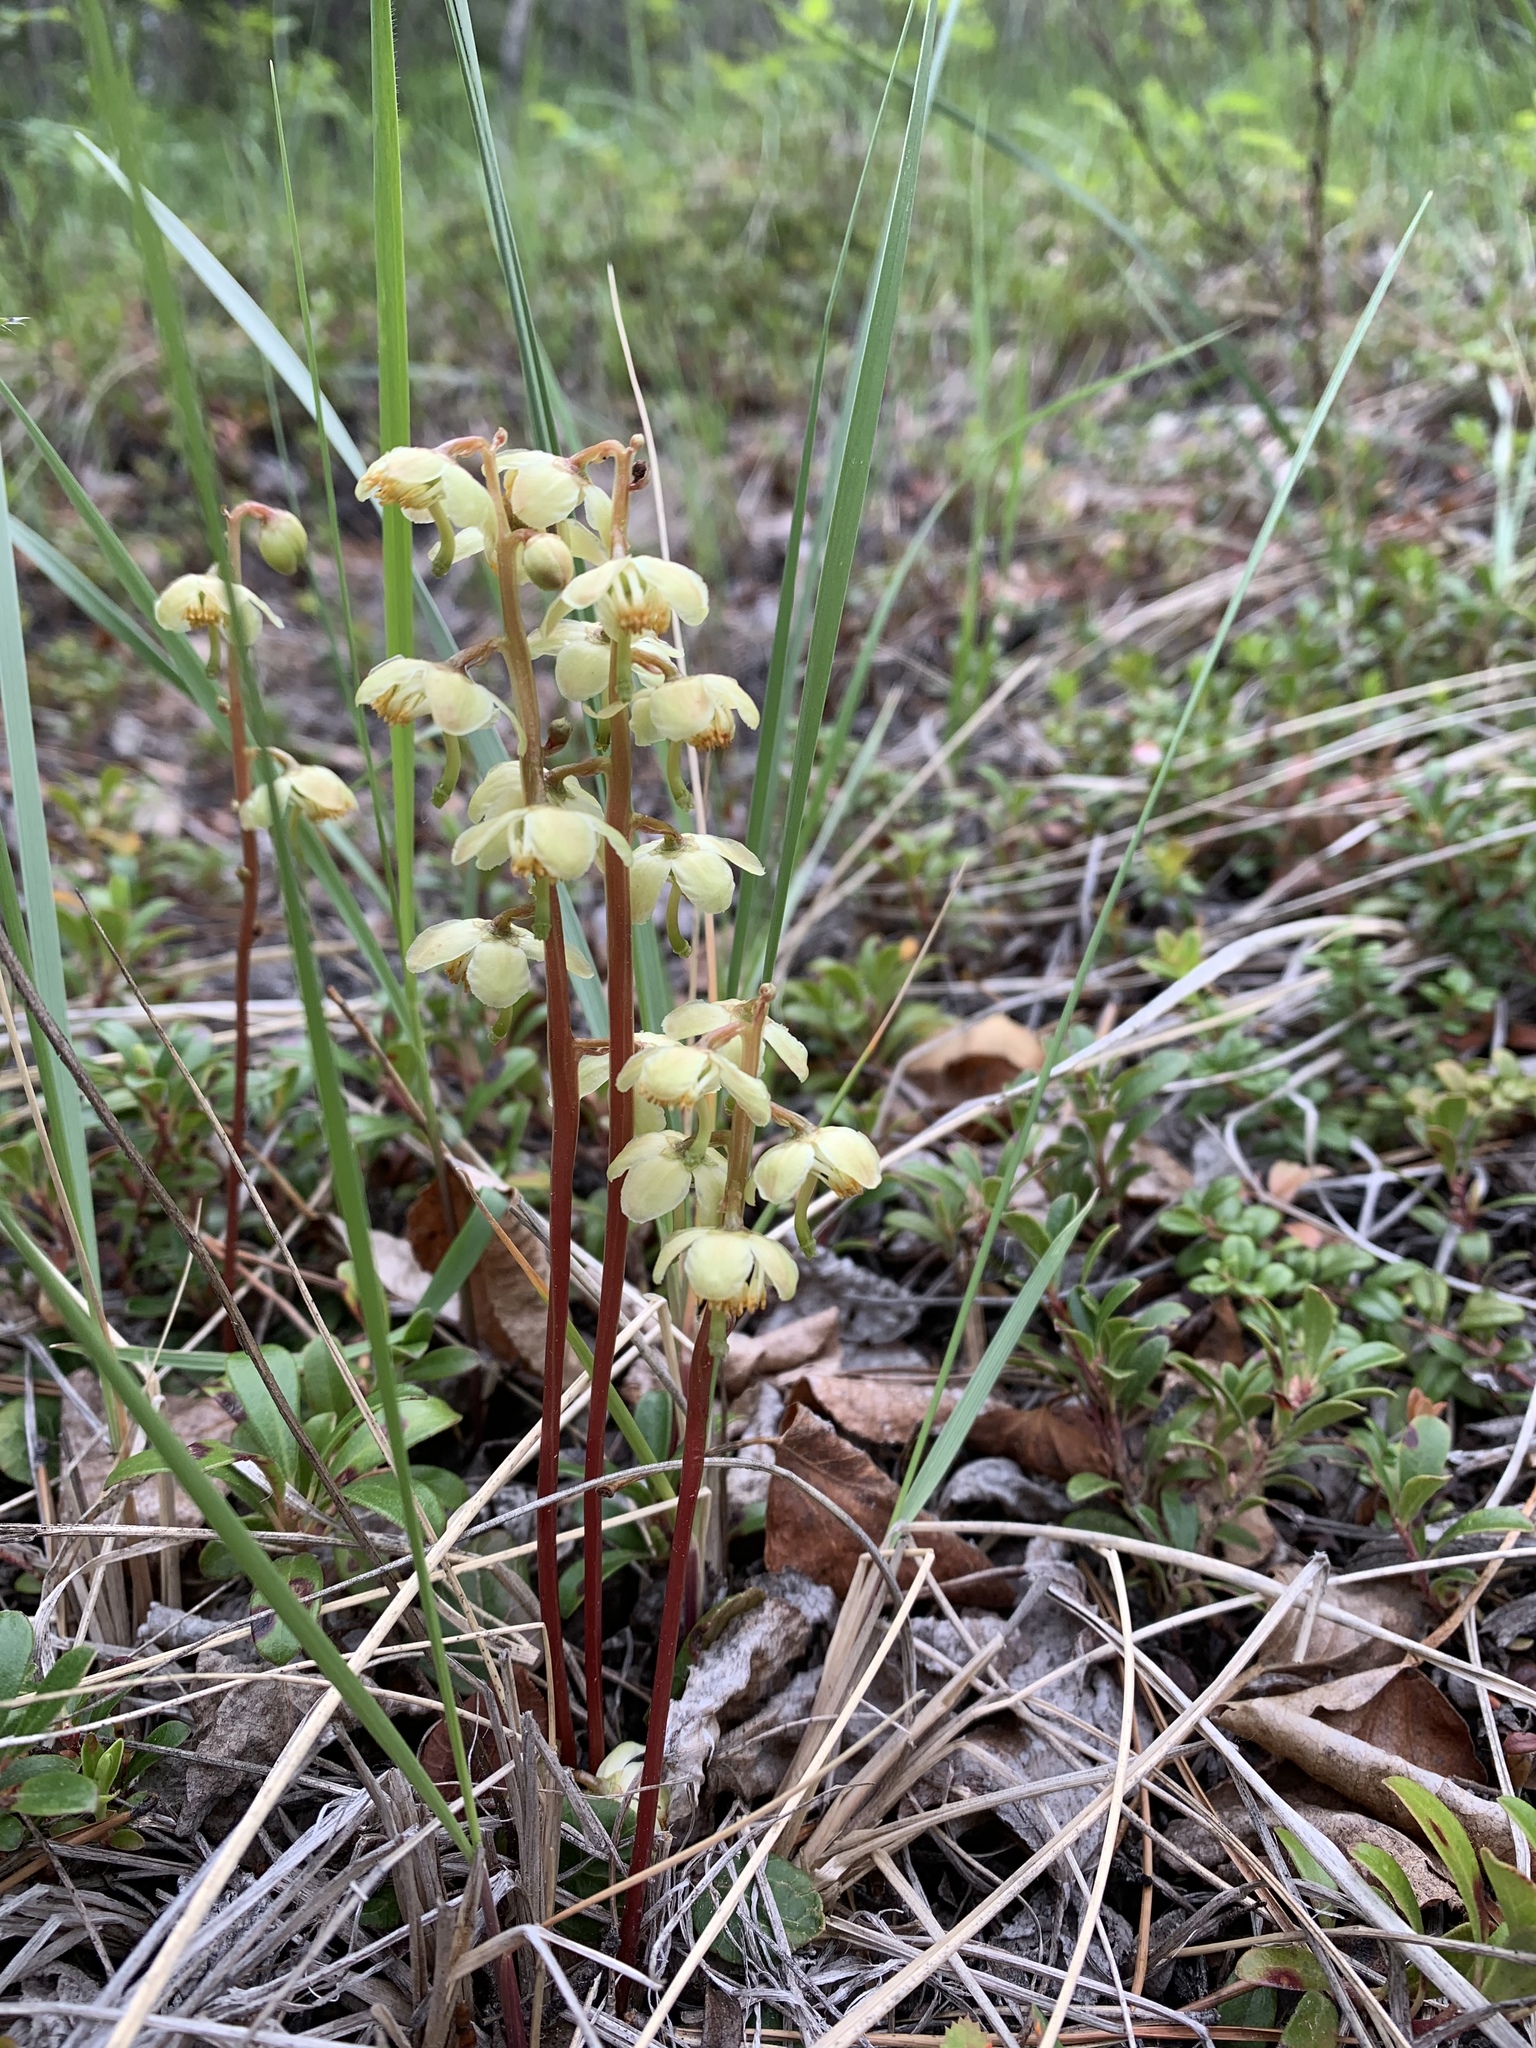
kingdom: Plantae
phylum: Tracheophyta
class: Magnoliopsida
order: Ericales
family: Ericaceae
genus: Pyrola
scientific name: Pyrola chlorantha
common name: Green wintergreen
